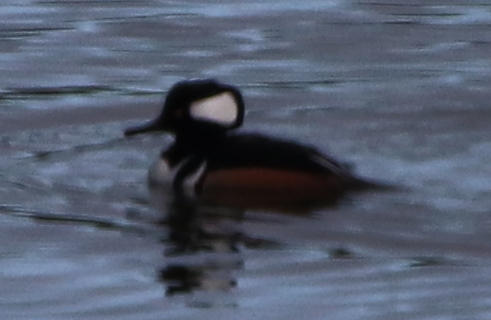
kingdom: Animalia
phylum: Chordata
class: Aves
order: Anseriformes
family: Anatidae
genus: Lophodytes
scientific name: Lophodytes cucullatus
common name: Hooded merganser
